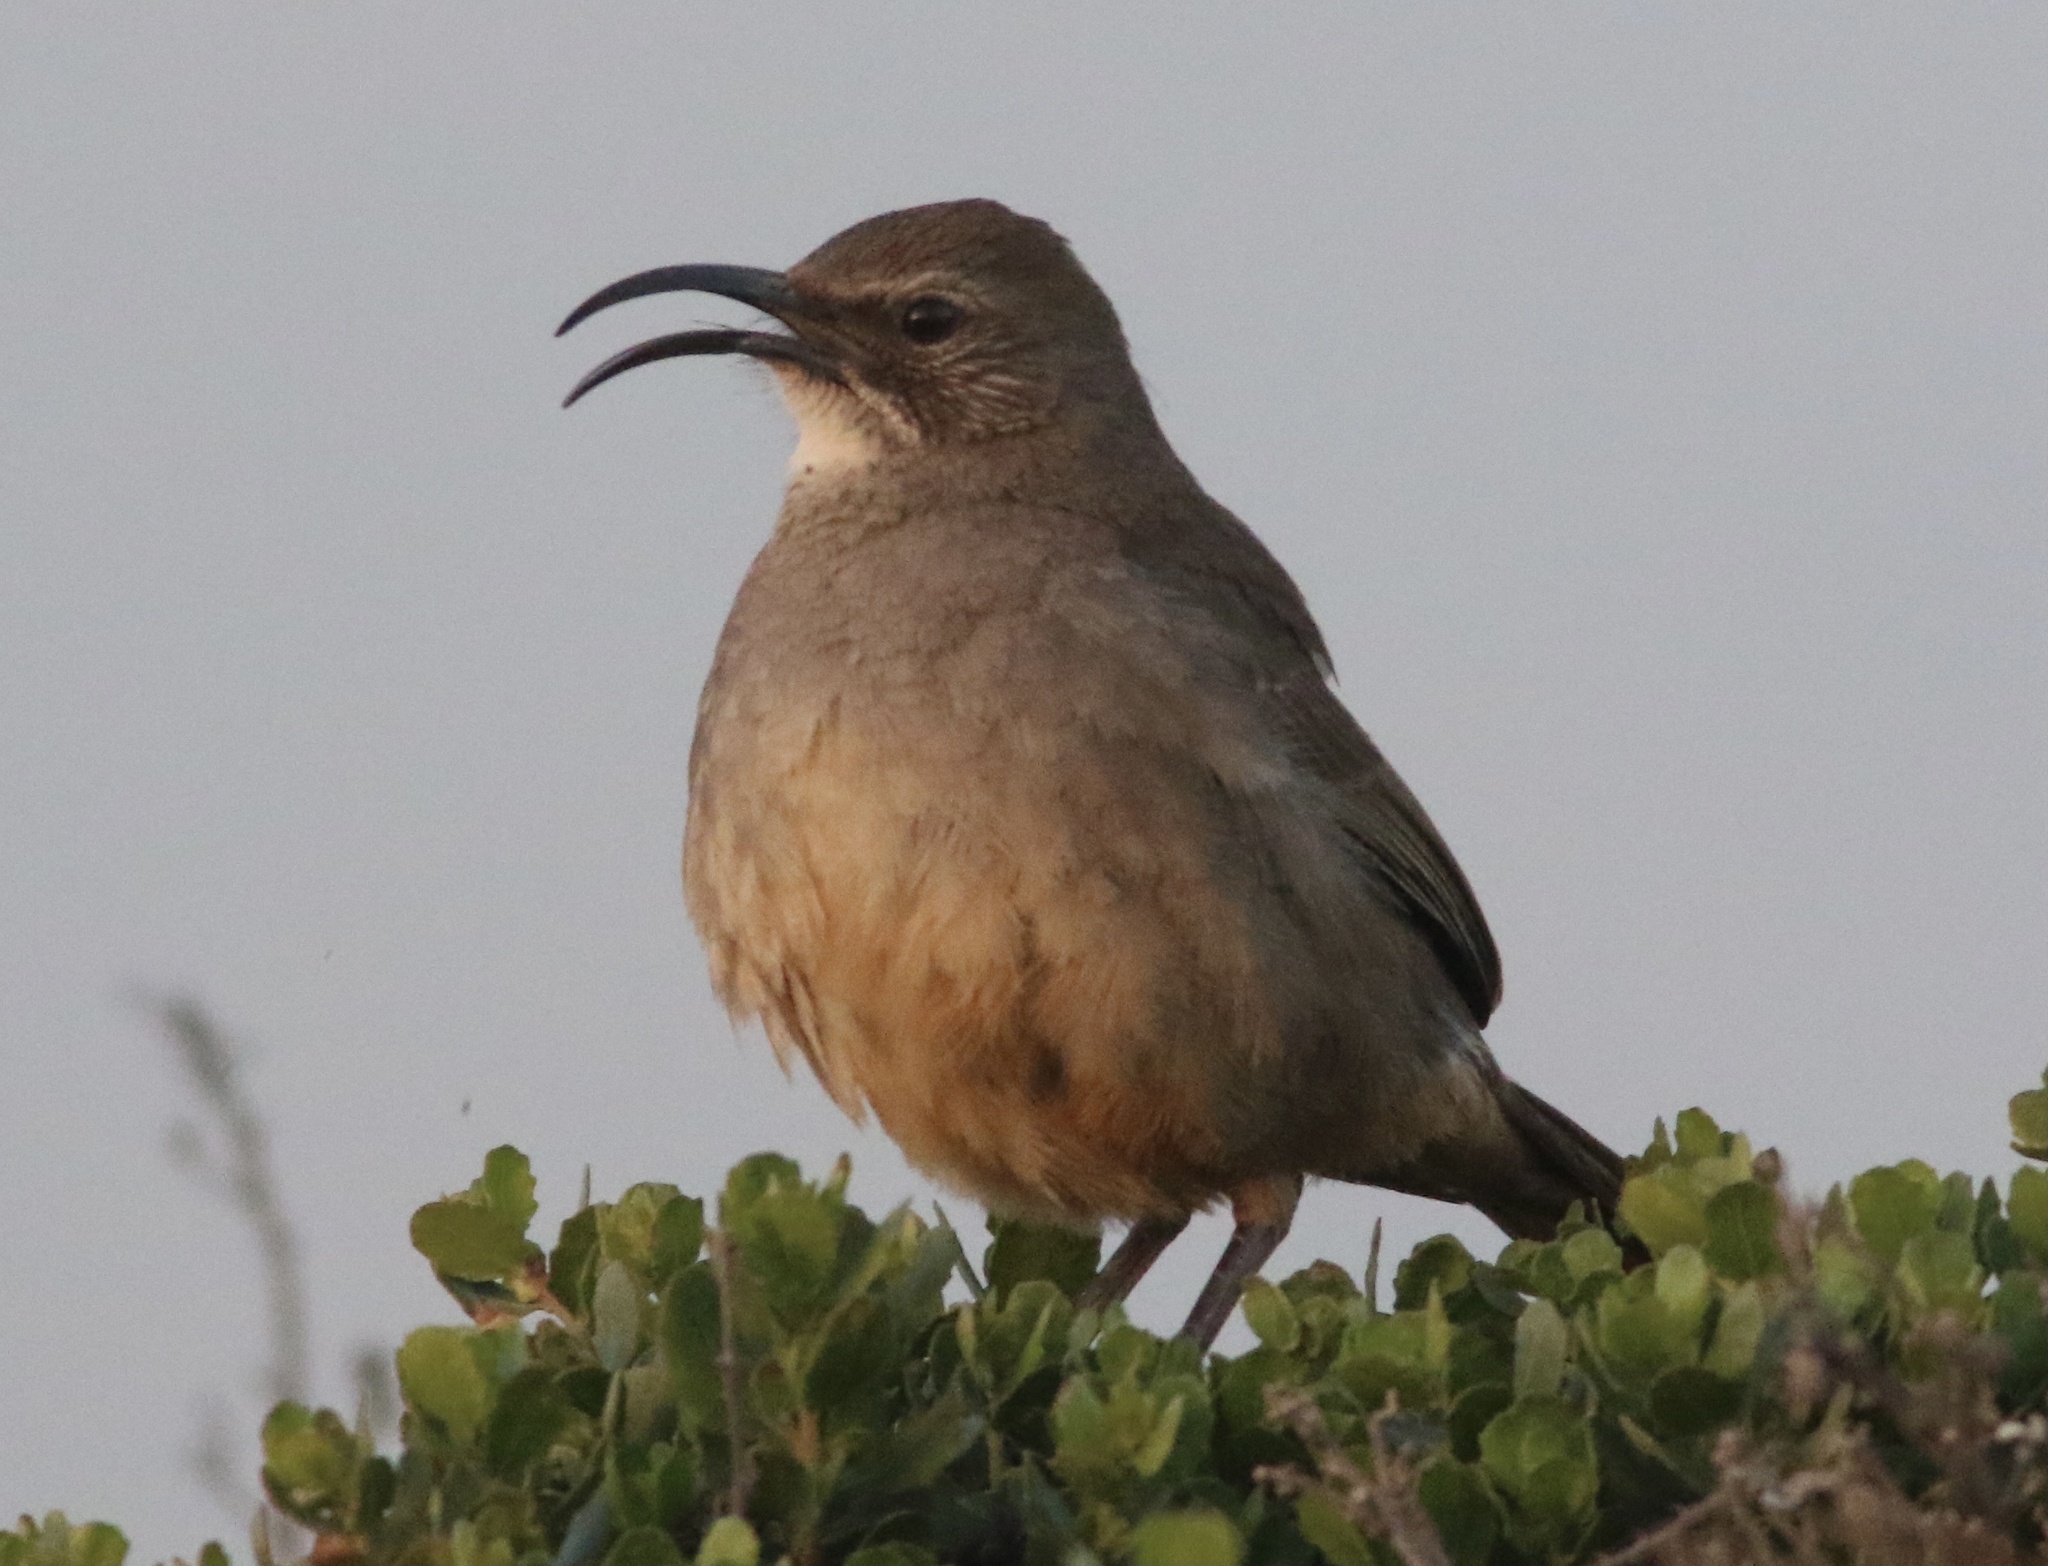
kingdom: Animalia
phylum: Chordata
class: Aves
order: Passeriformes
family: Mimidae
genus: Toxostoma
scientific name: Toxostoma redivivum
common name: California thrasher
